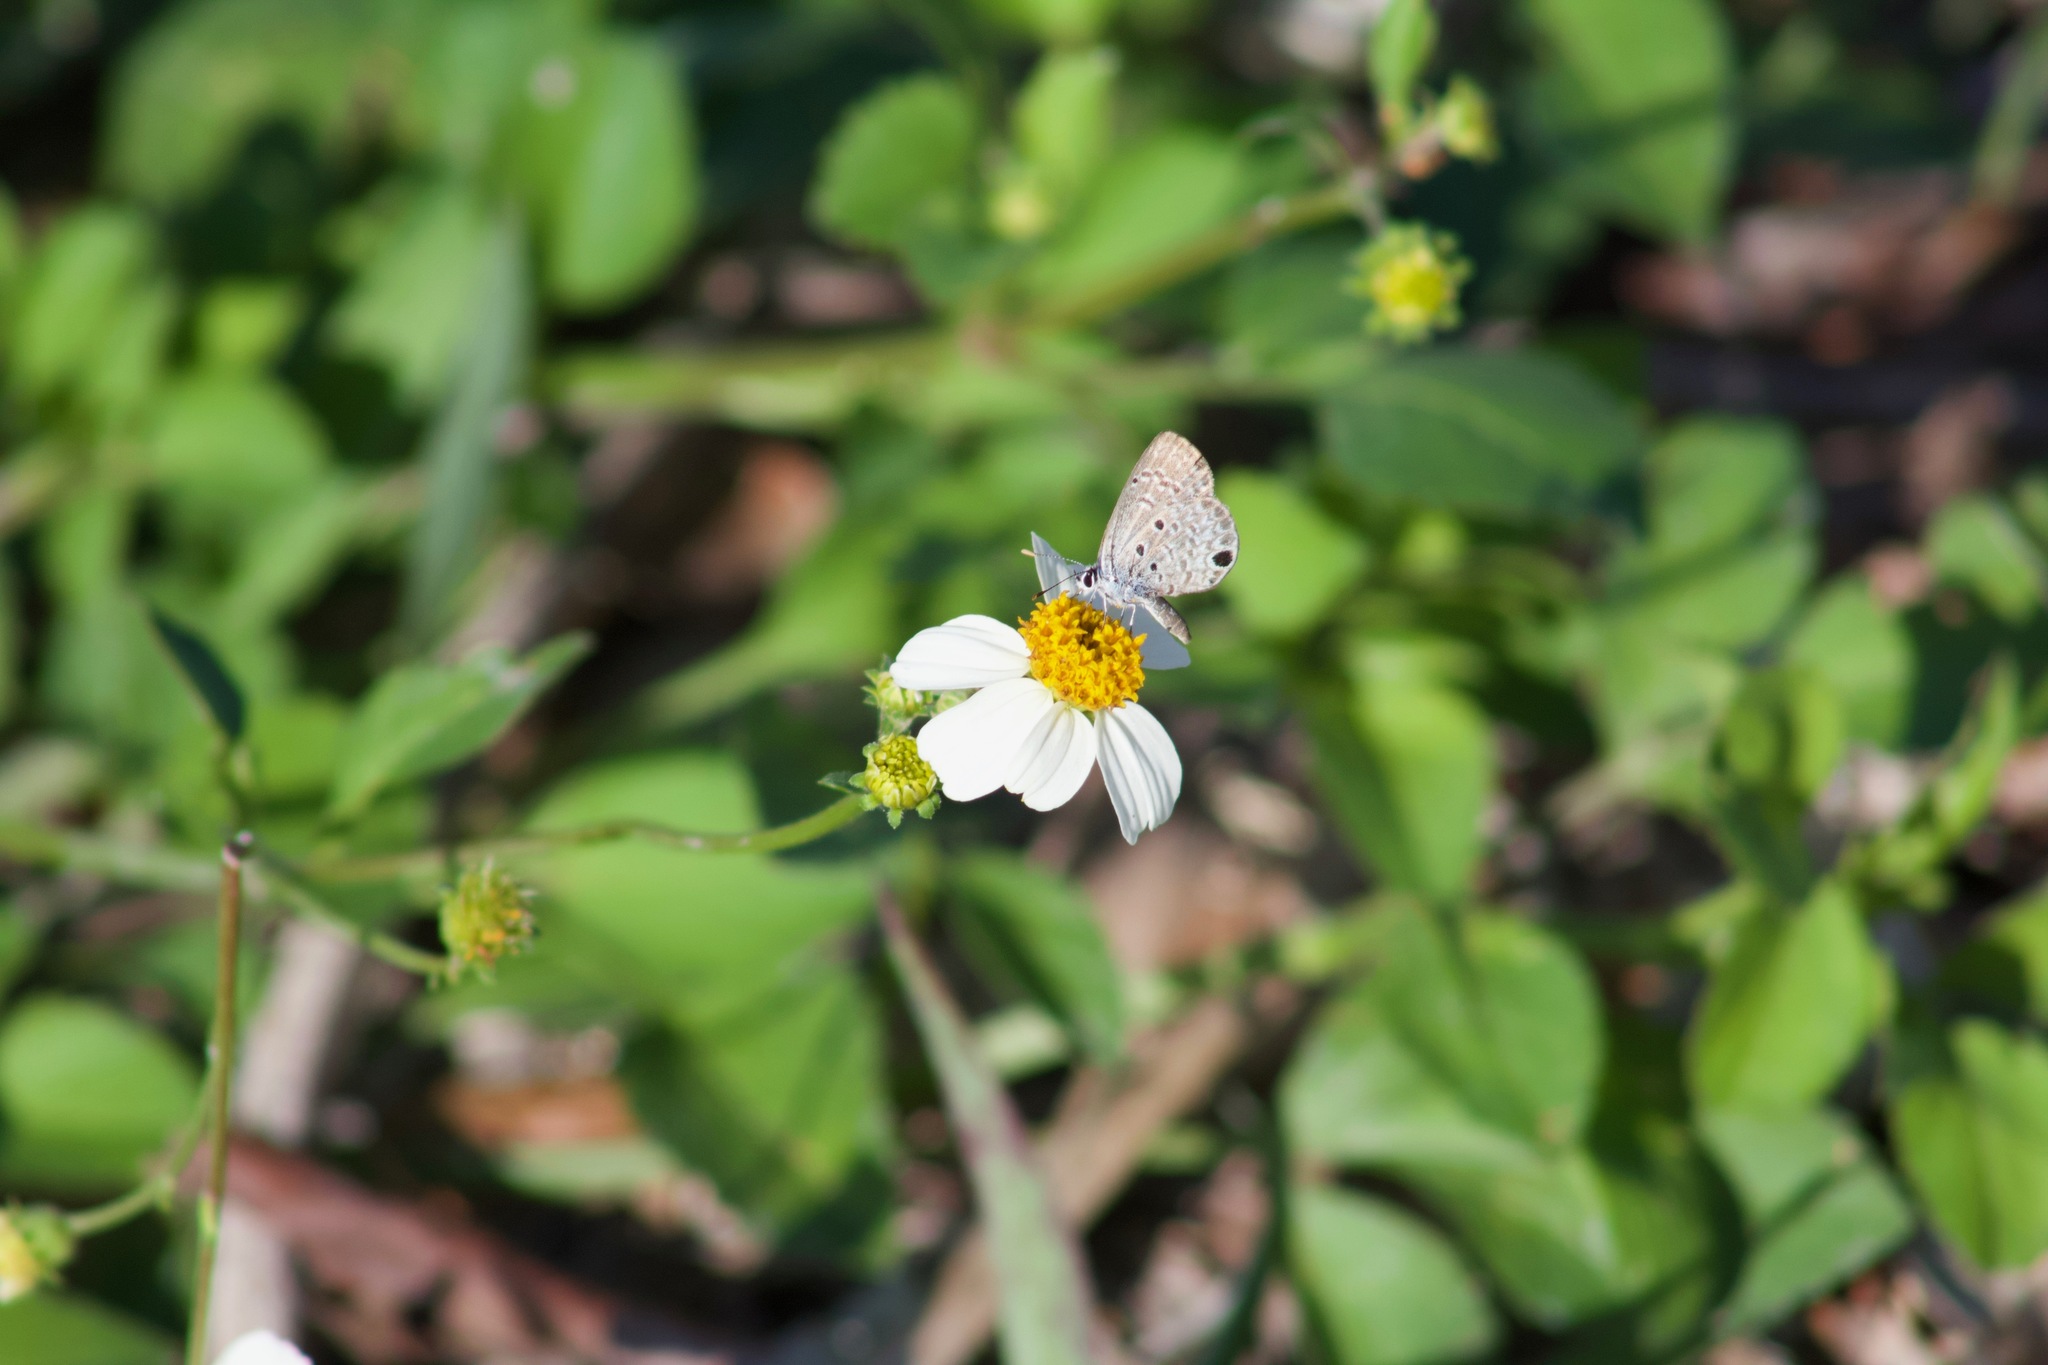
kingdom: Animalia
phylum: Arthropoda
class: Insecta
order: Lepidoptera
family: Lycaenidae
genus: Hemiargus
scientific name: Hemiargus ceraunus
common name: Ceraunus blue
